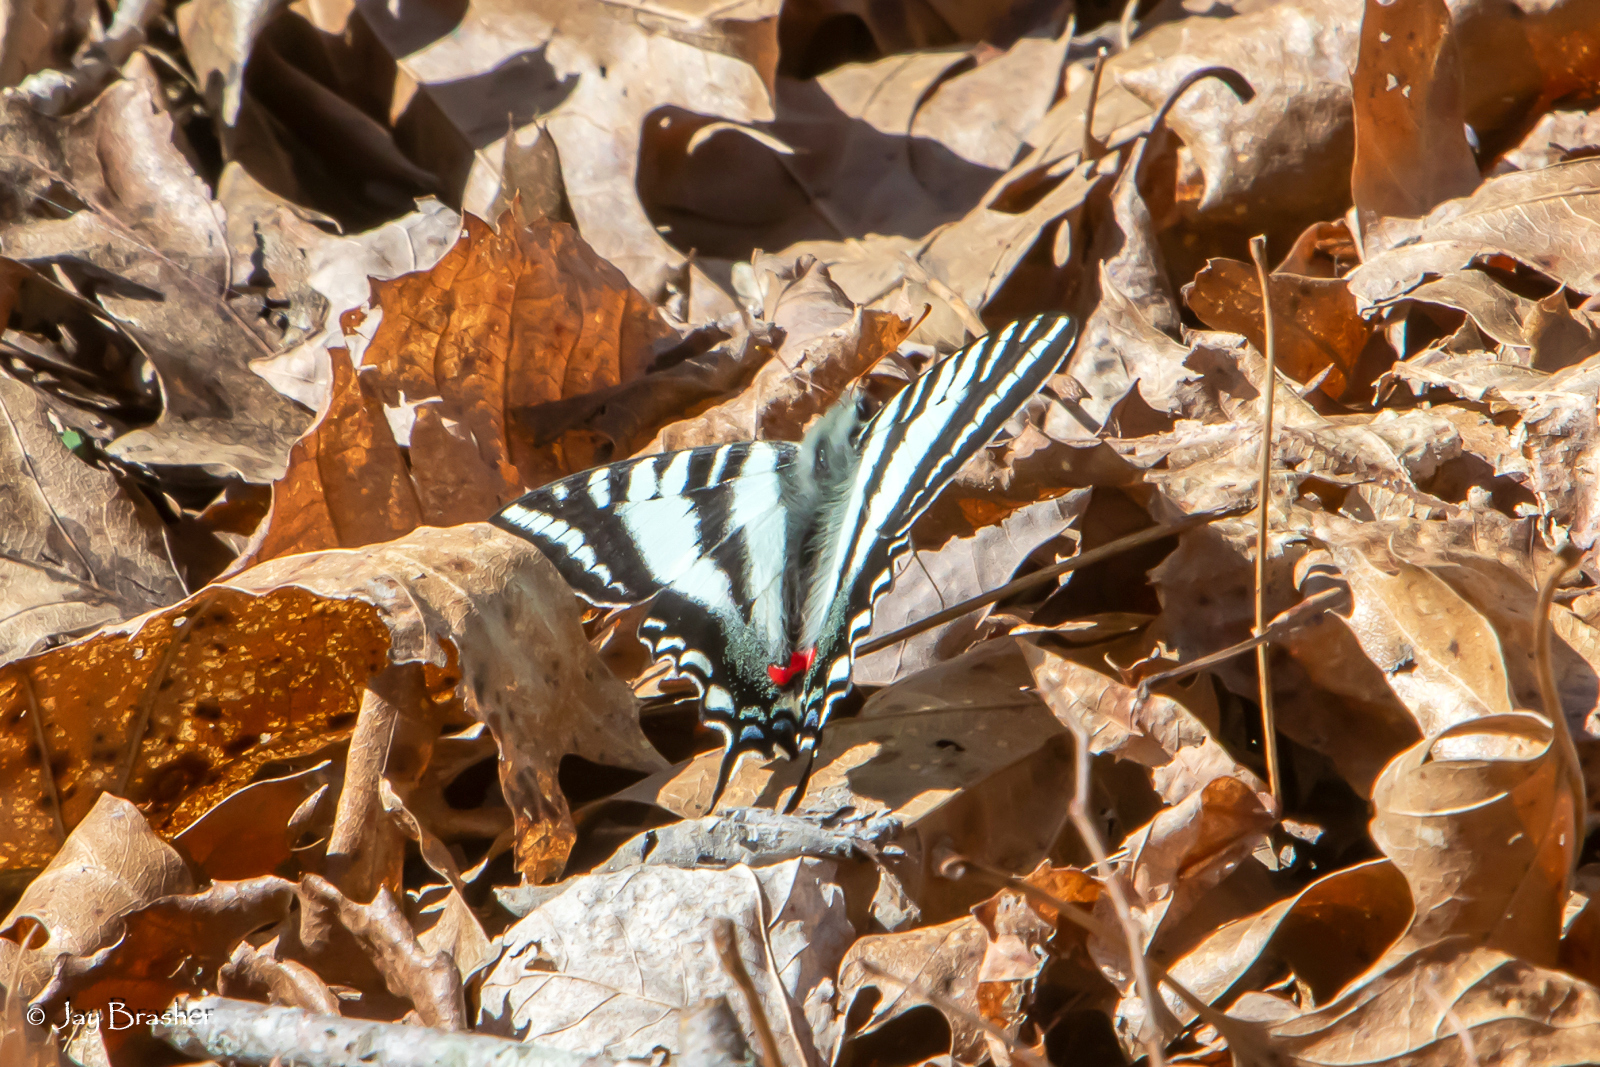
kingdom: Animalia
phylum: Arthropoda
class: Insecta
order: Lepidoptera
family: Papilionidae
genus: Protographium
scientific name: Protographium marcellus
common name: Zebra swallowtail
